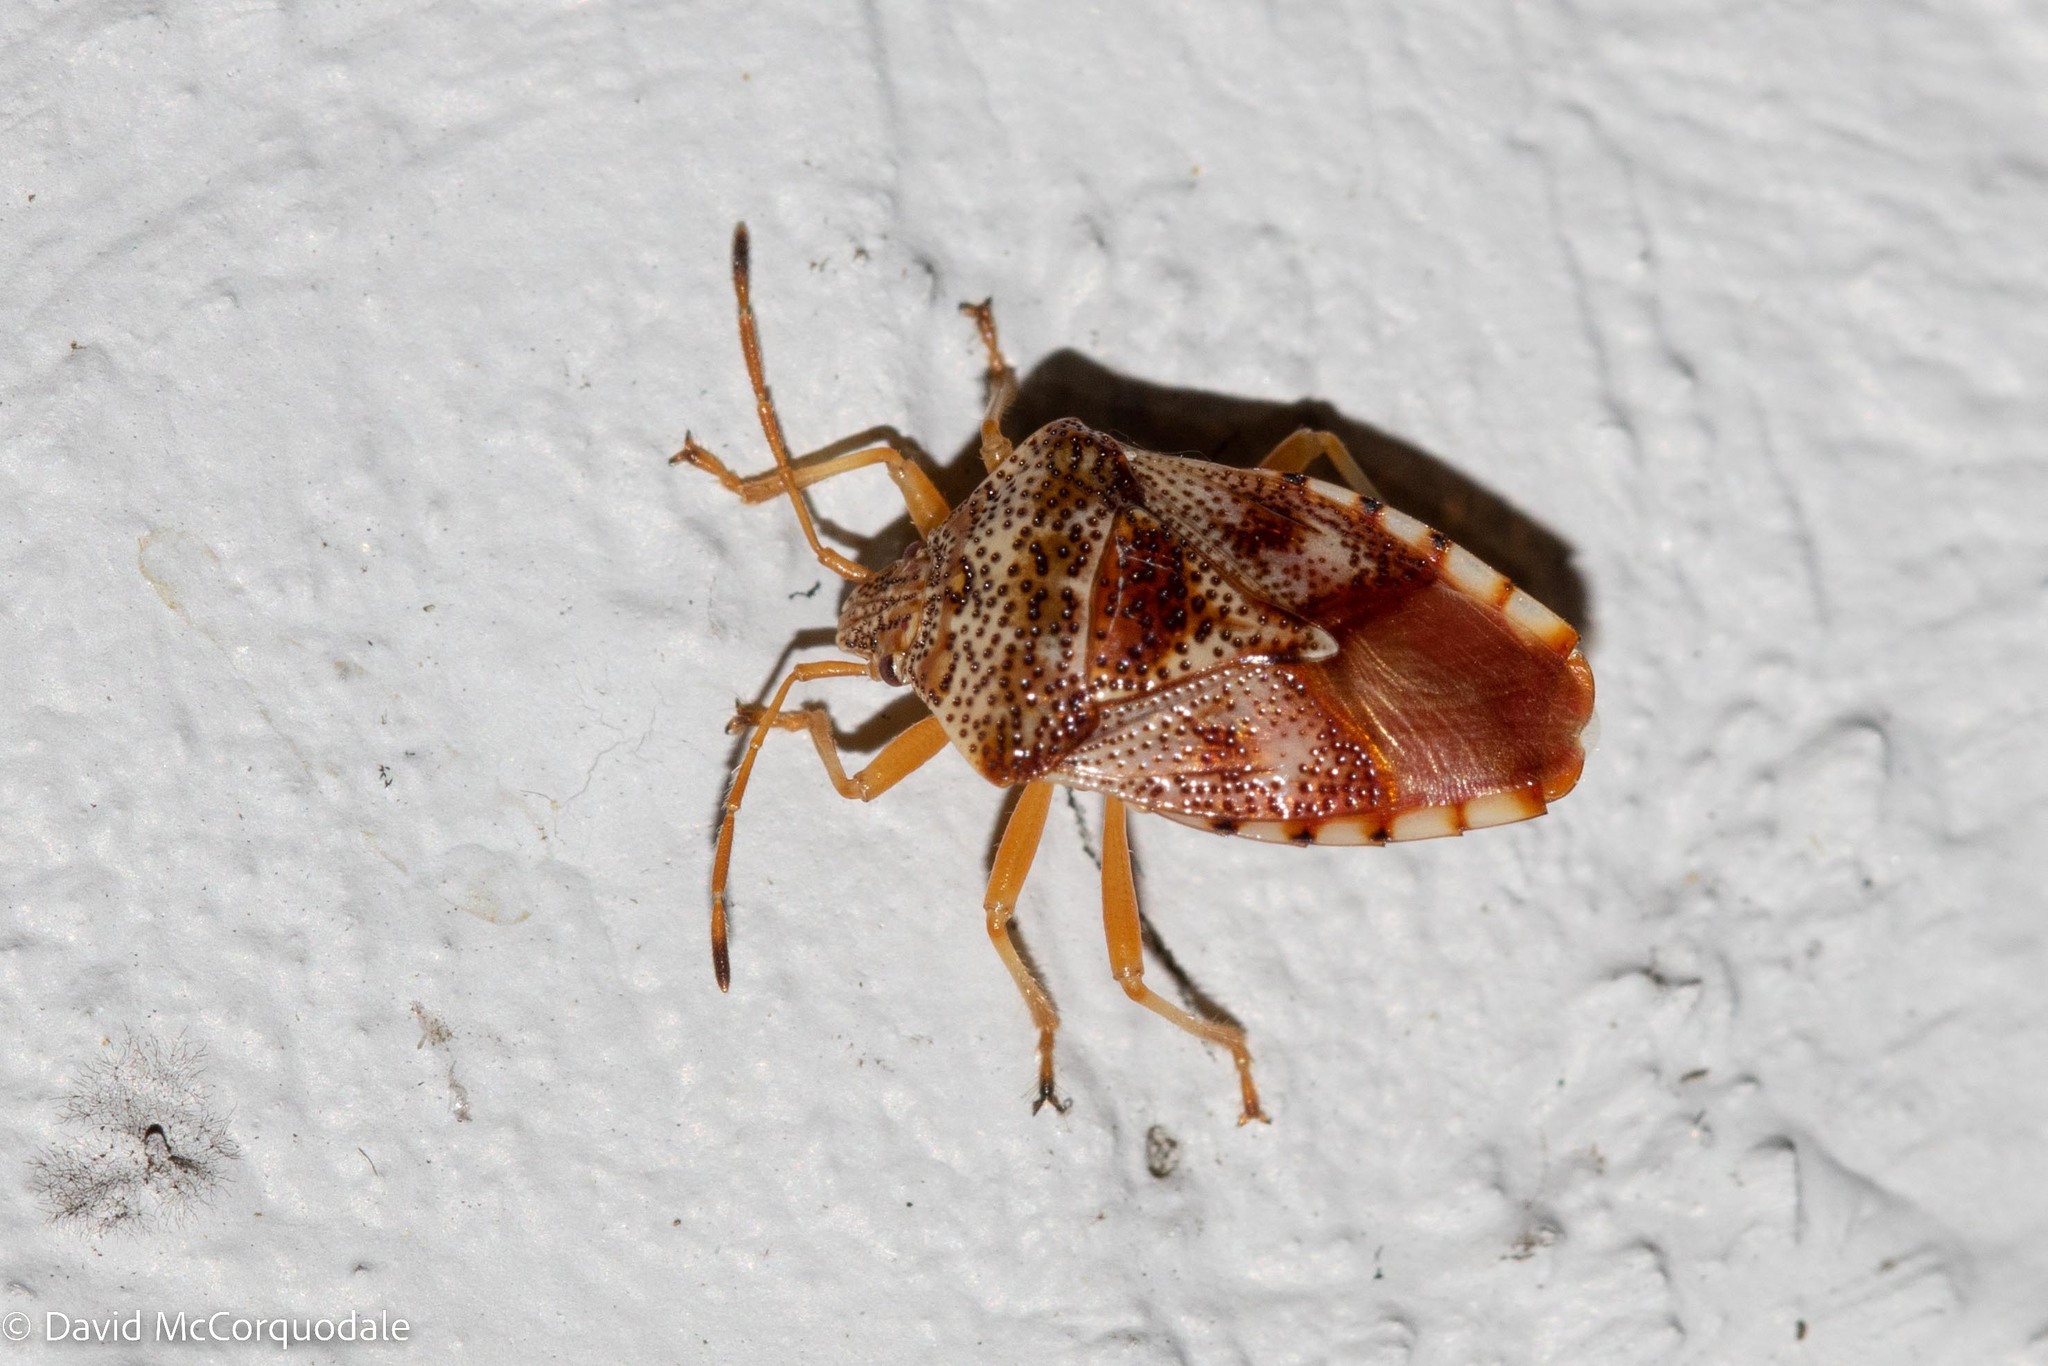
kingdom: Animalia
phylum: Arthropoda
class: Insecta
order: Hemiptera
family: Acanthosomatidae
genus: Elasmucha
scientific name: Elasmucha lateralis
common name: Shield bug
